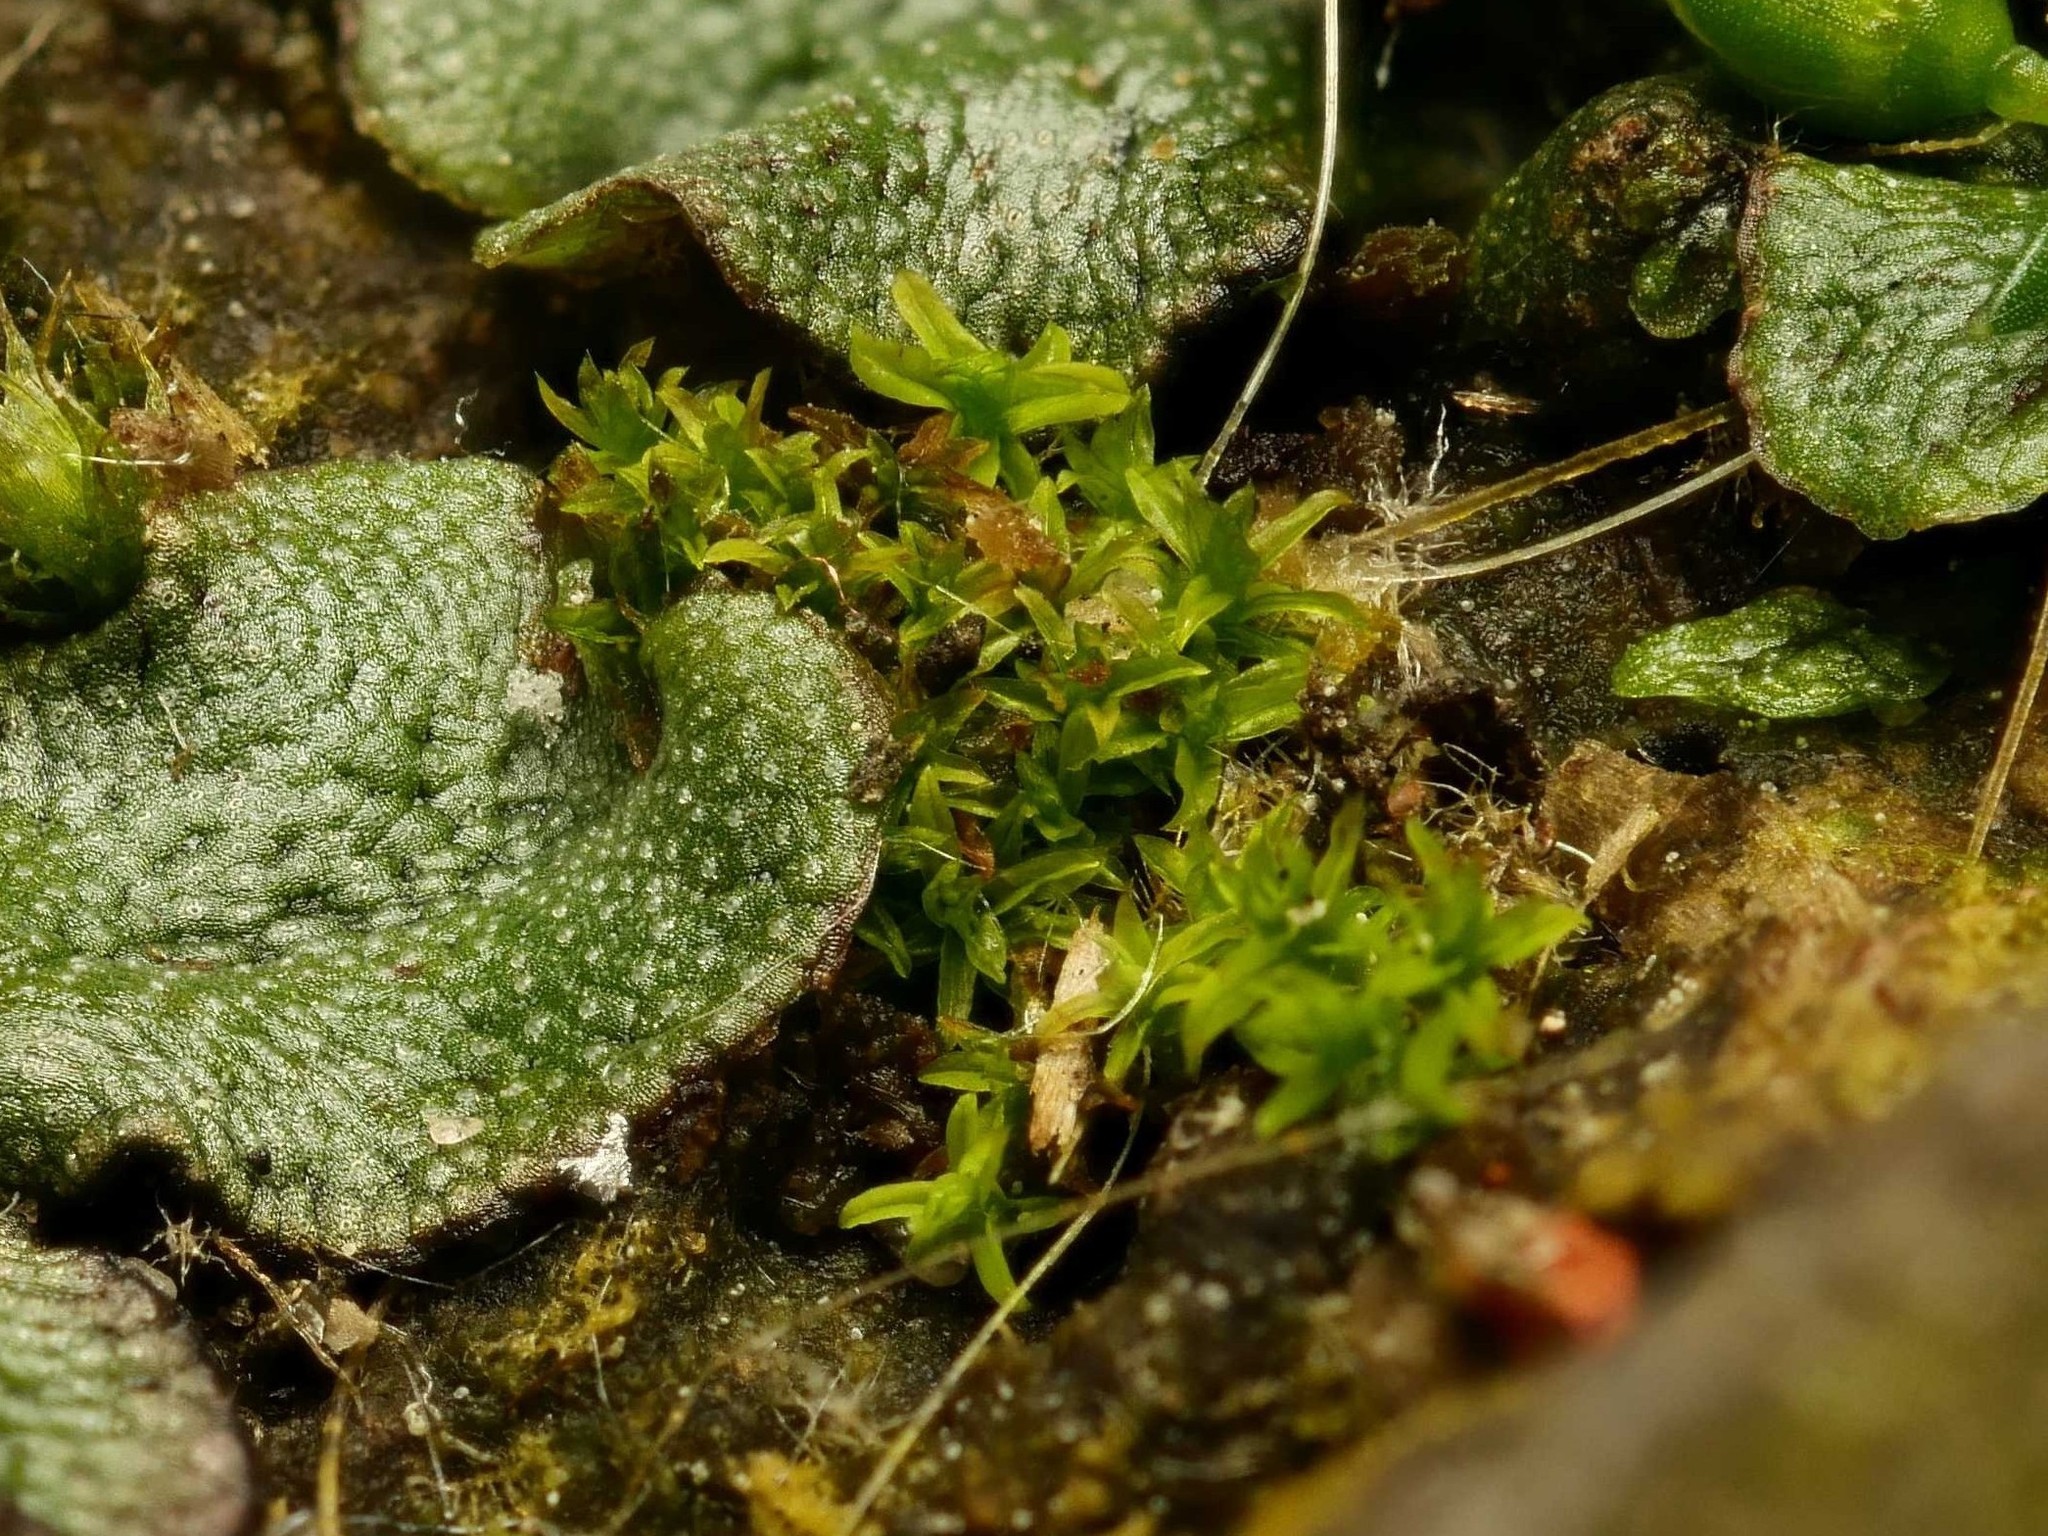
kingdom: Plantae
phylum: Bryophyta
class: Bryopsida
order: Pottiales
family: Pottiaceae
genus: Barbula
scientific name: Barbula unguiculata
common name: Prickly beard moss
